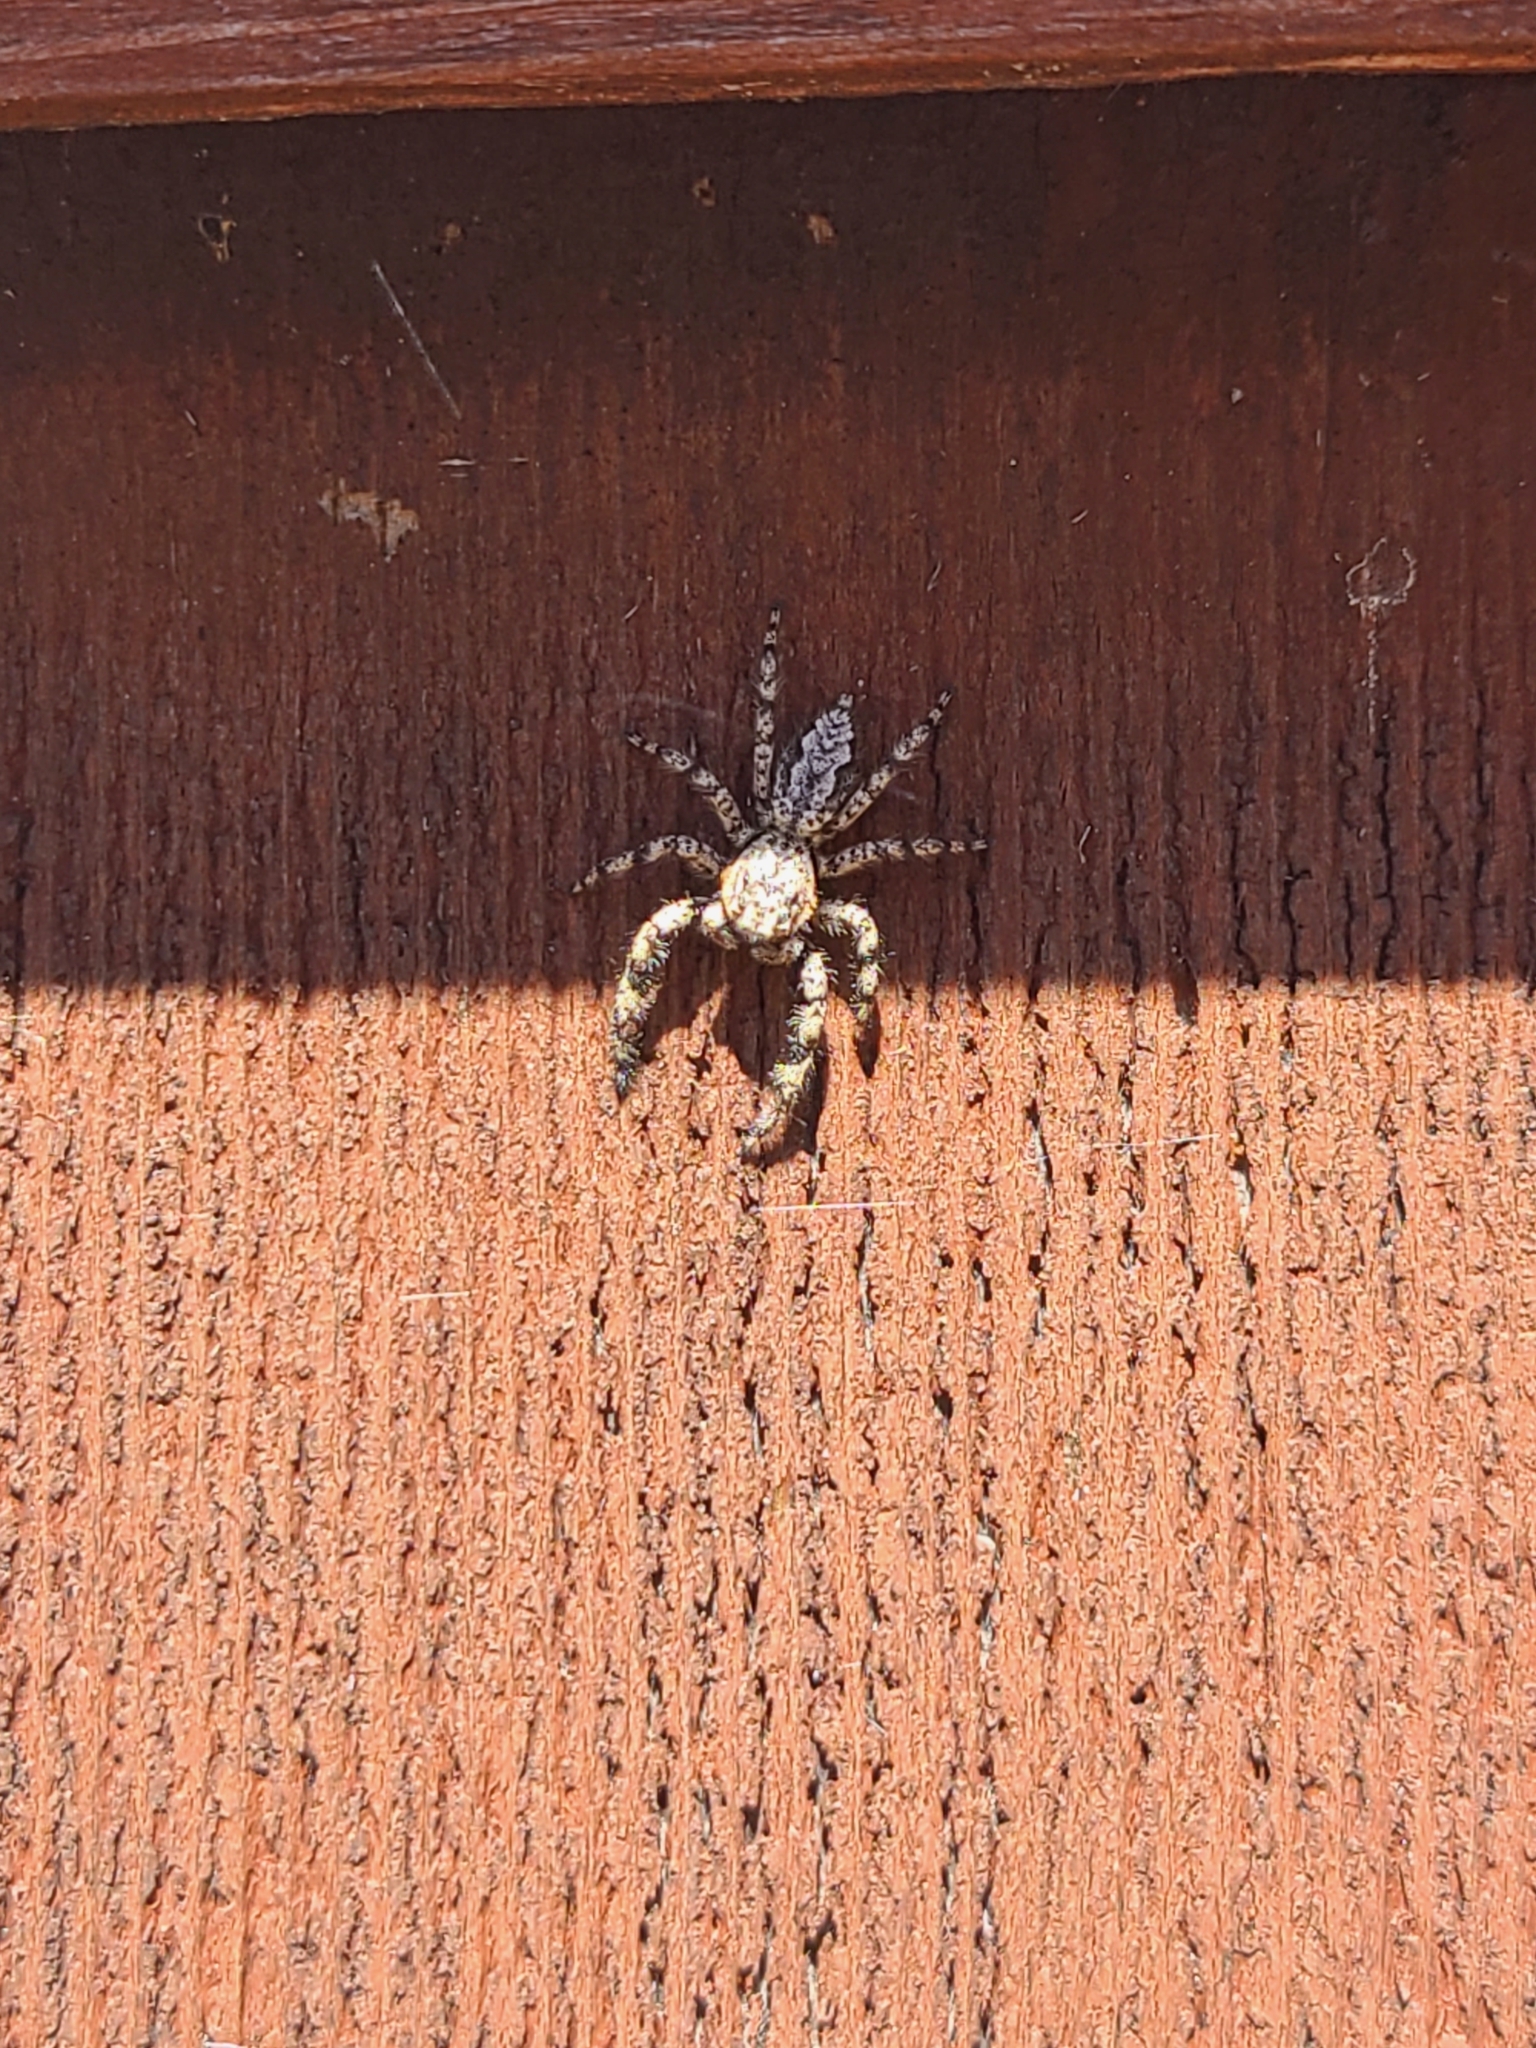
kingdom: Animalia
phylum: Arthropoda
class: Arachnida
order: Araneae
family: Salticidae
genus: Platycryptus
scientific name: Platycryptus undatus
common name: Tan jumping spider
